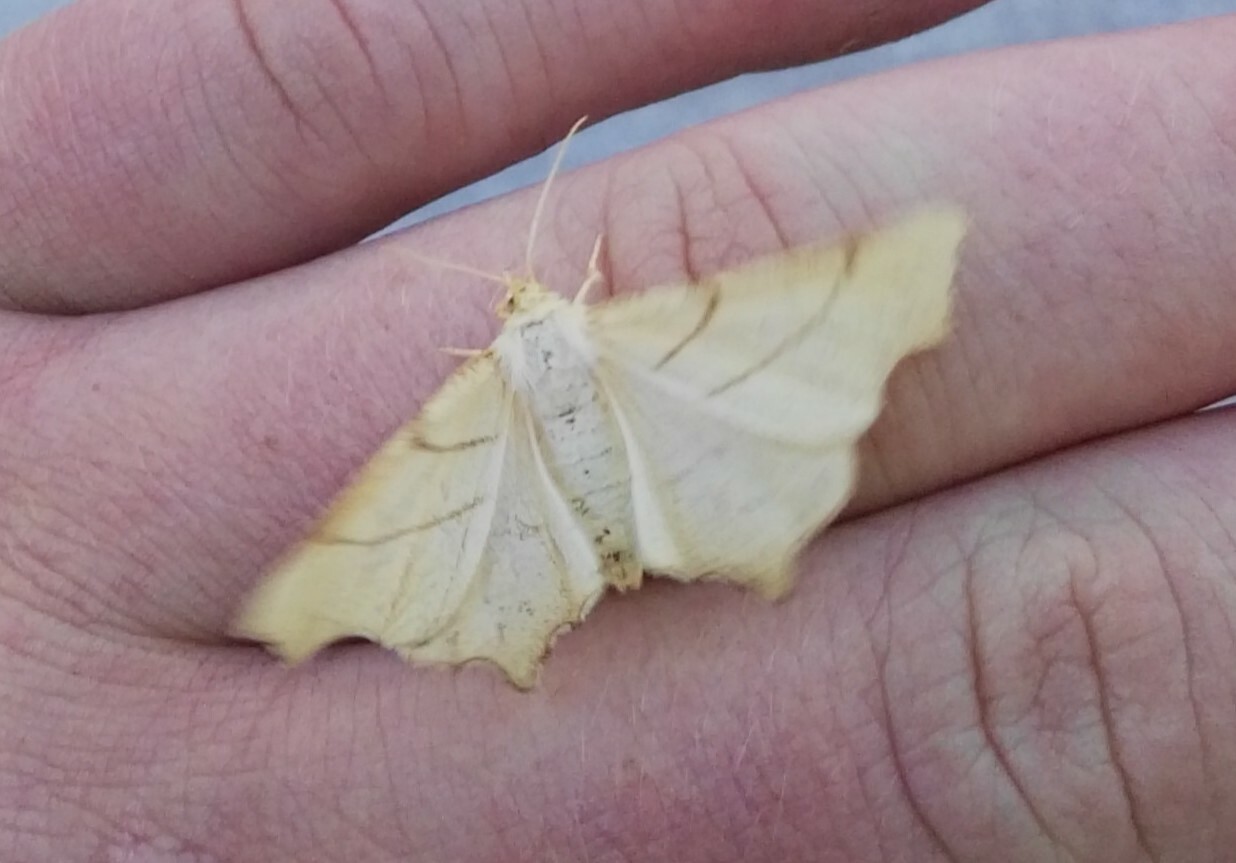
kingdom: Animalia
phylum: Arthropoda
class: Insecta
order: Lepidoptera
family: Geometridae
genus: Ennomos
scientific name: Ennomos erosaria
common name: September thorn
